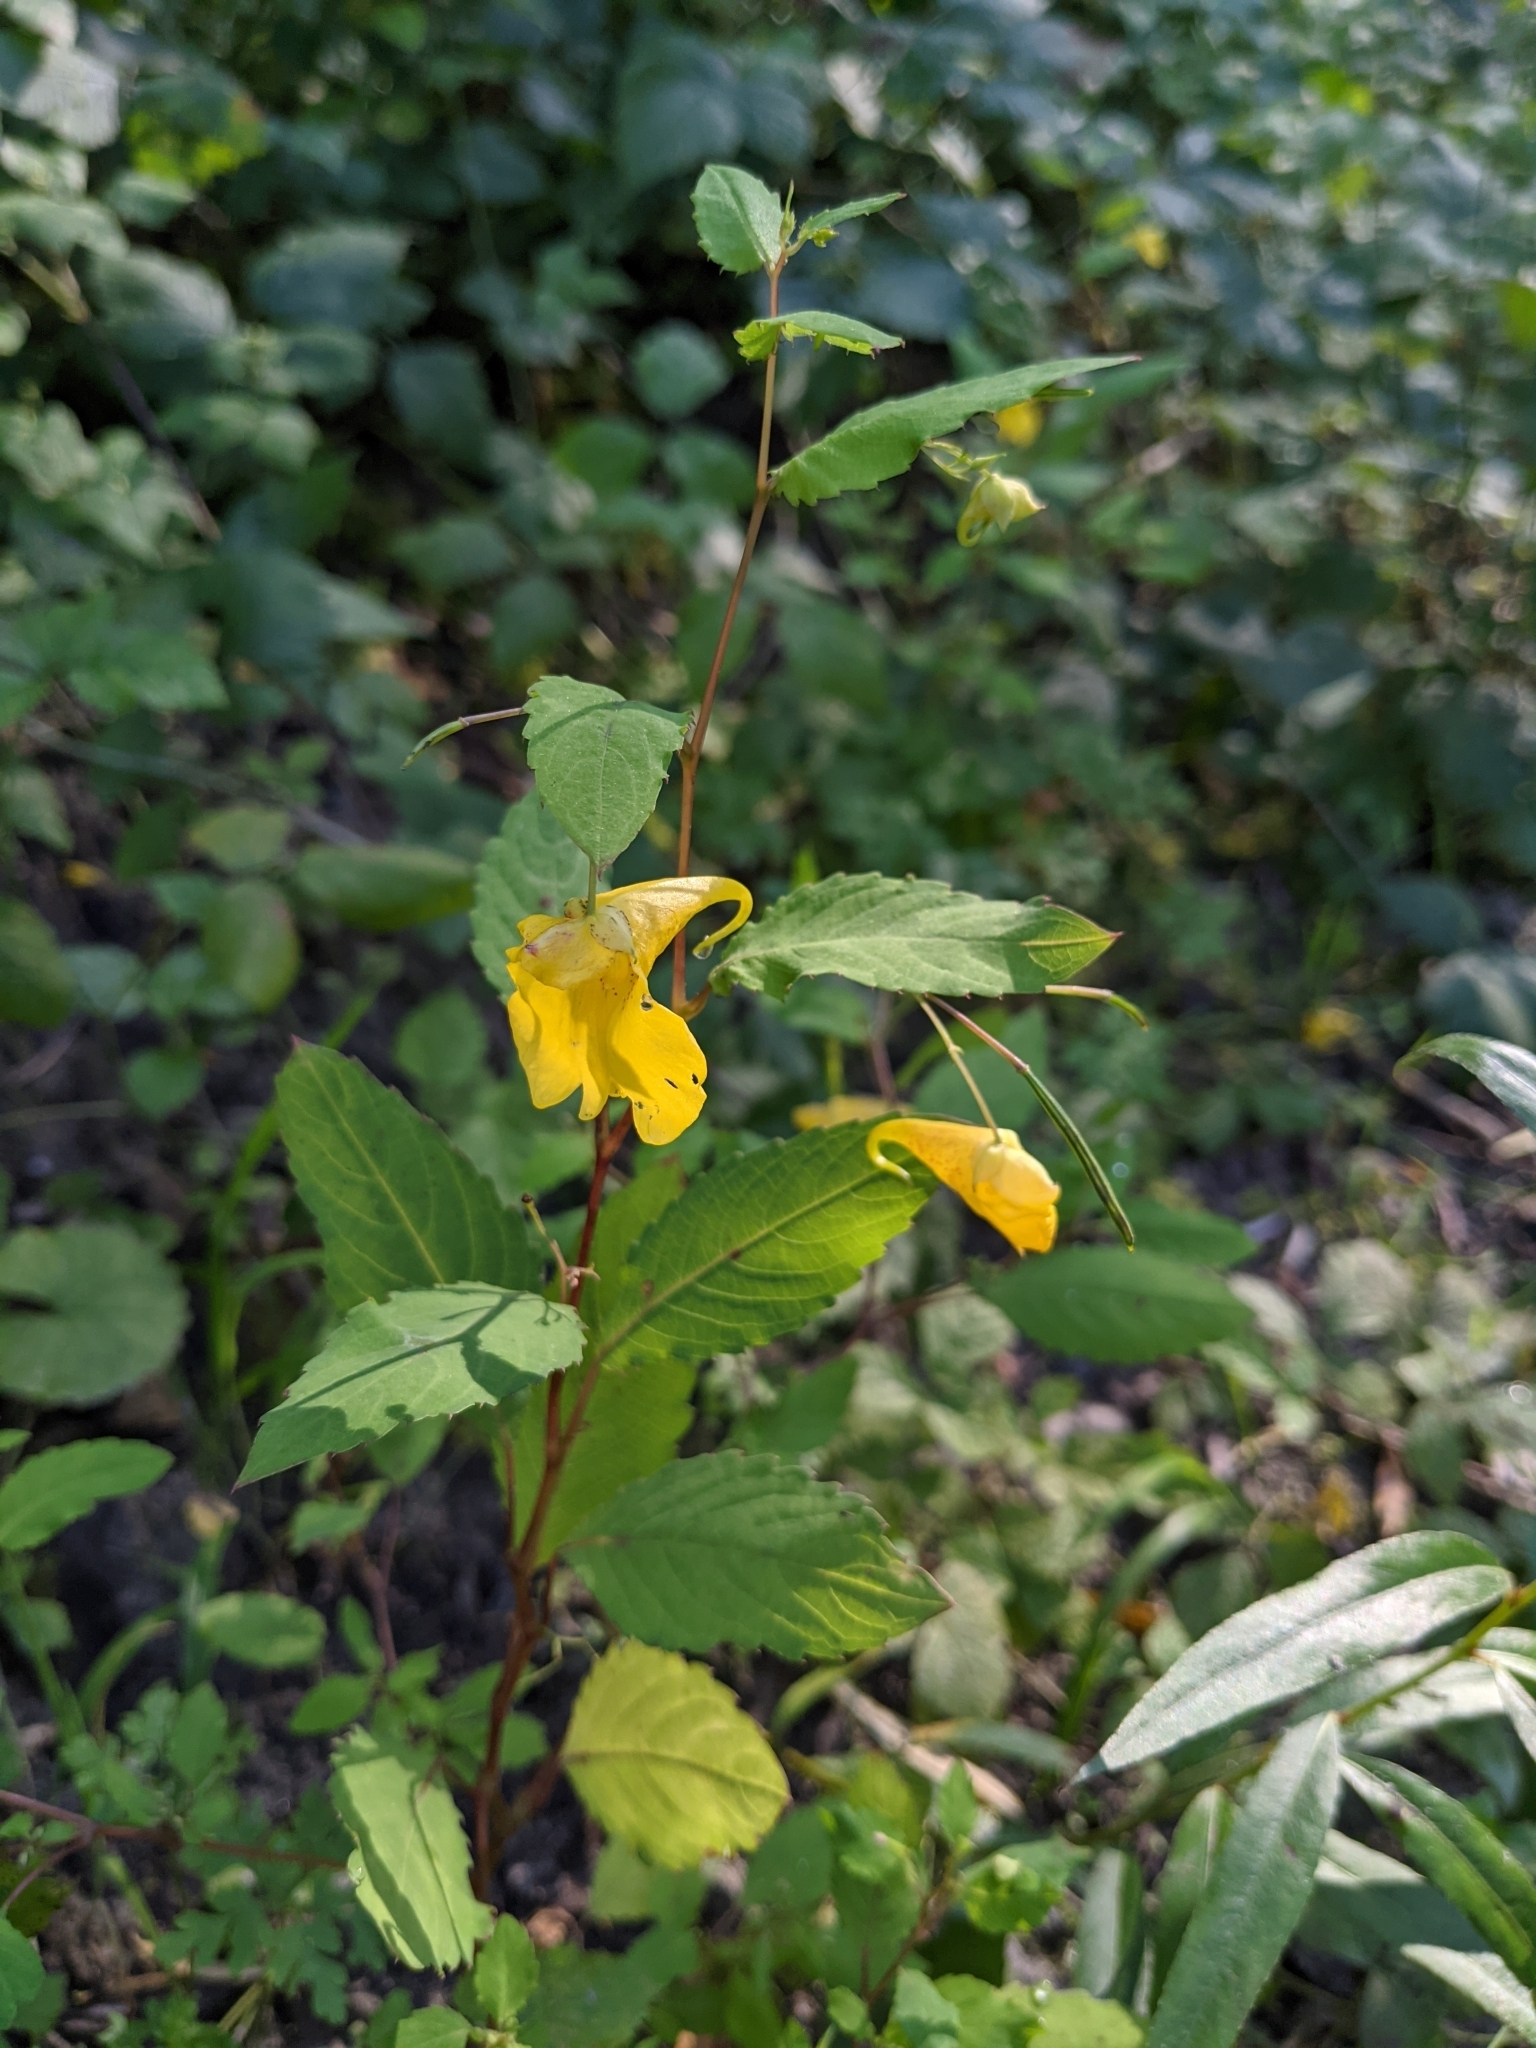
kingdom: Plantae
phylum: Tracheophyta
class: Magnoliopsida
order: Ericales
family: Balsaminaceae
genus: Impatiens
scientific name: Impatiens noli-tangere
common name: Touch-me-not balsam
